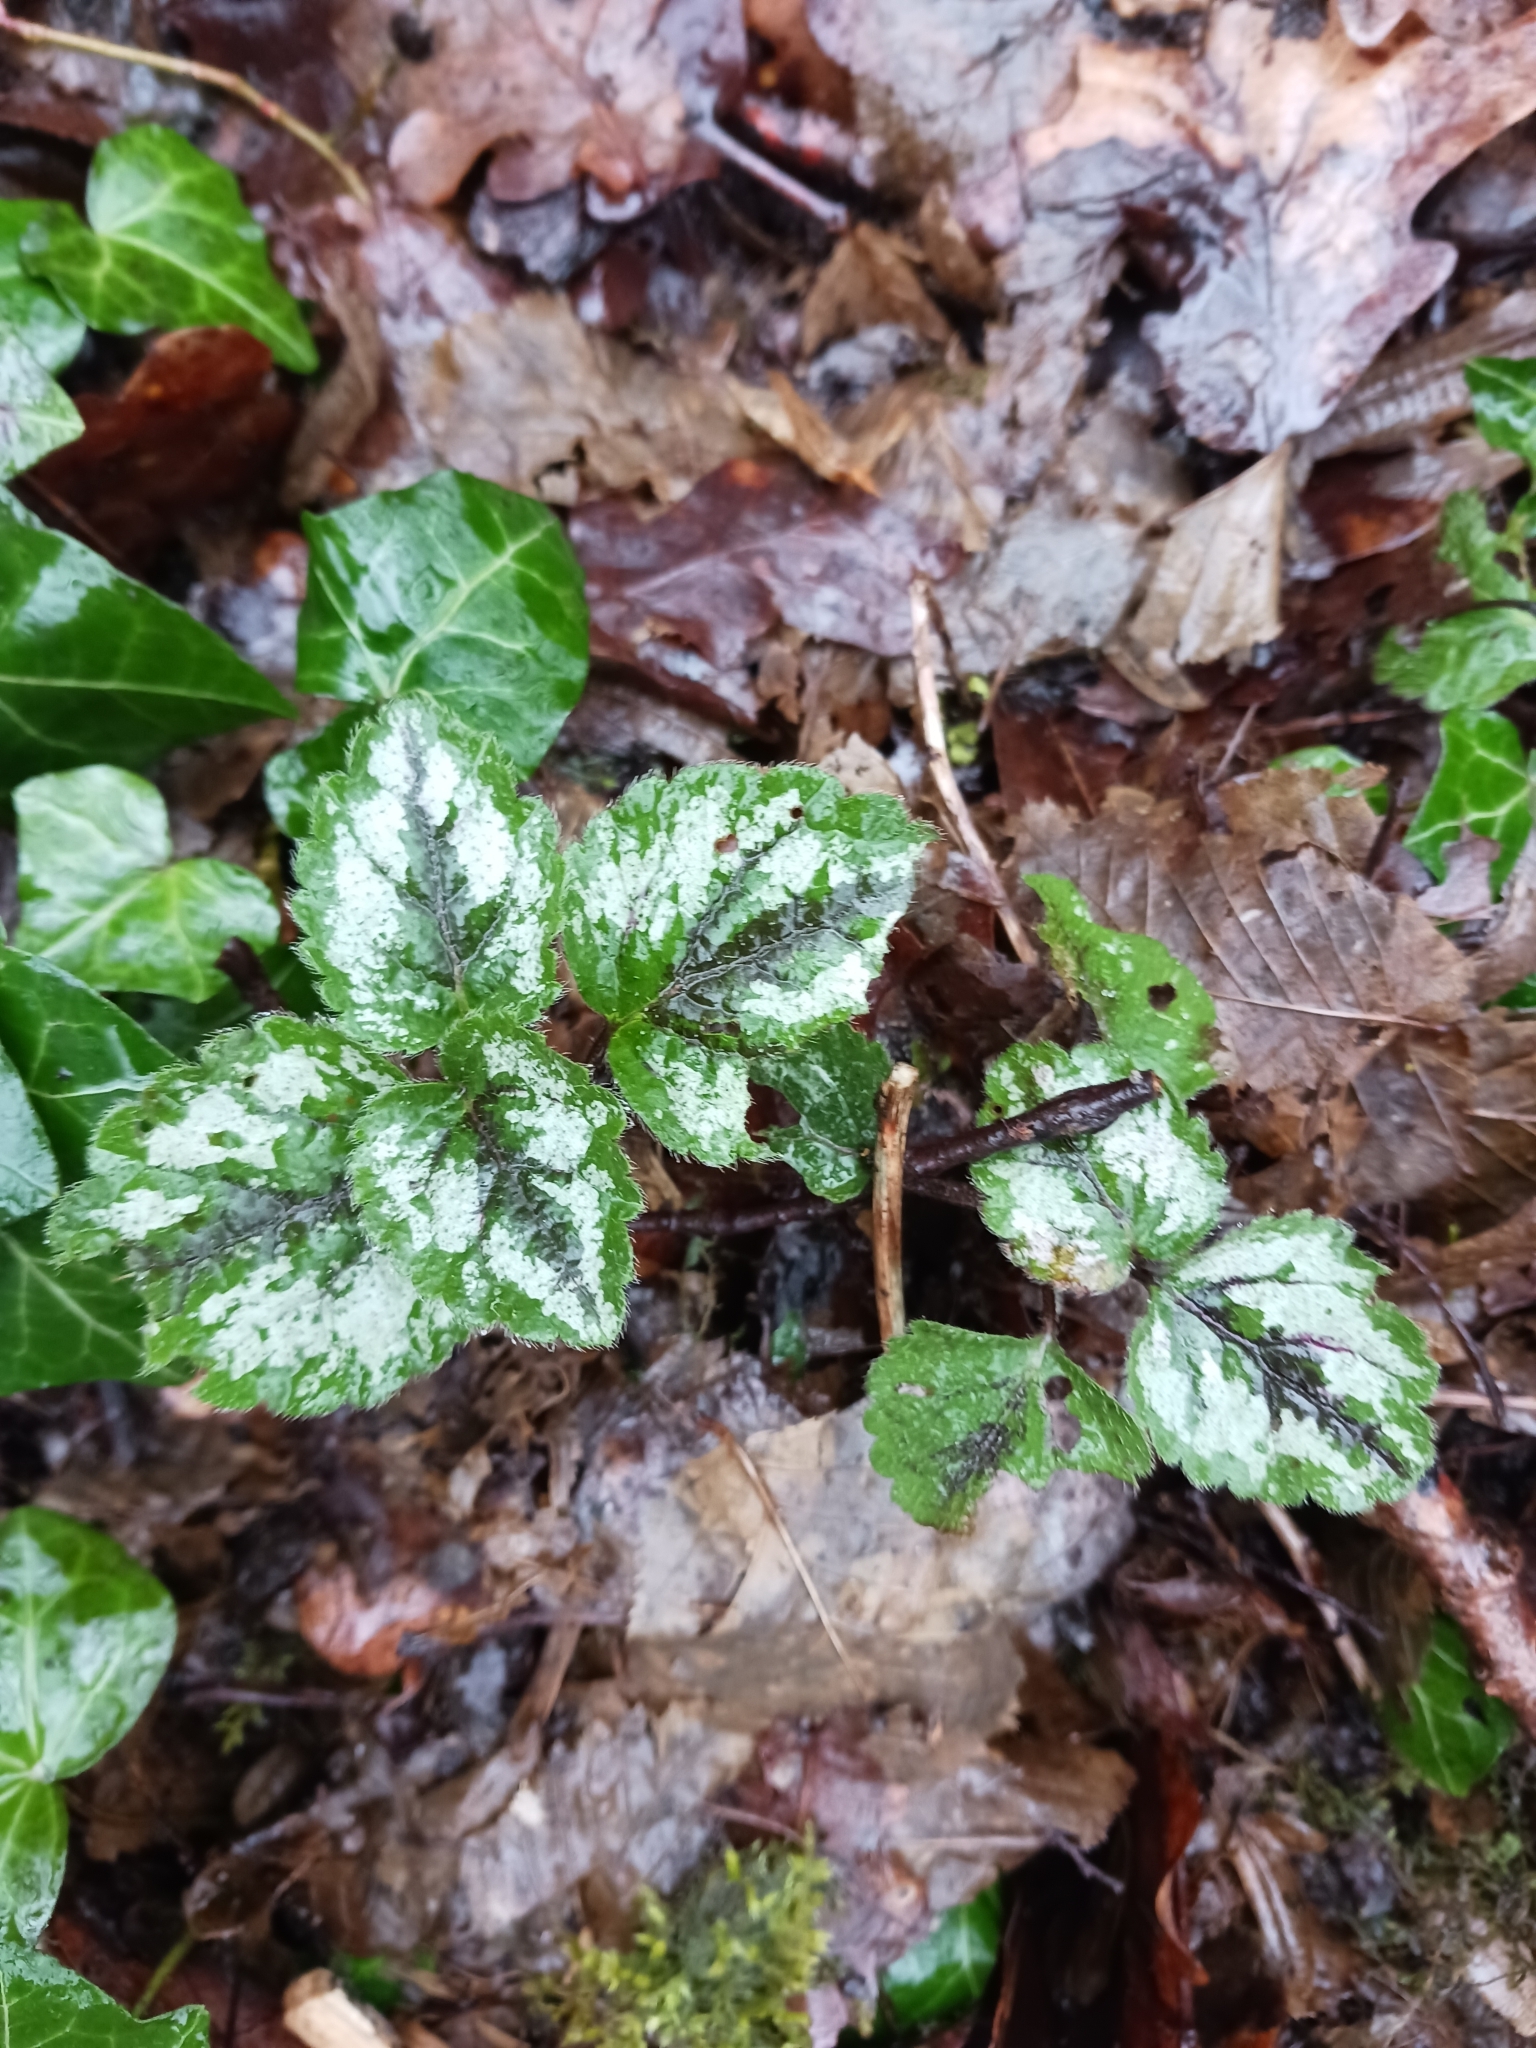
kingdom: Plantae
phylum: Tracheophyta
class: Magnoliopsida
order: Lamiales
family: Lamiaceae
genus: Lamium
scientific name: Lamium galeobdolon
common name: Yellow archangel
